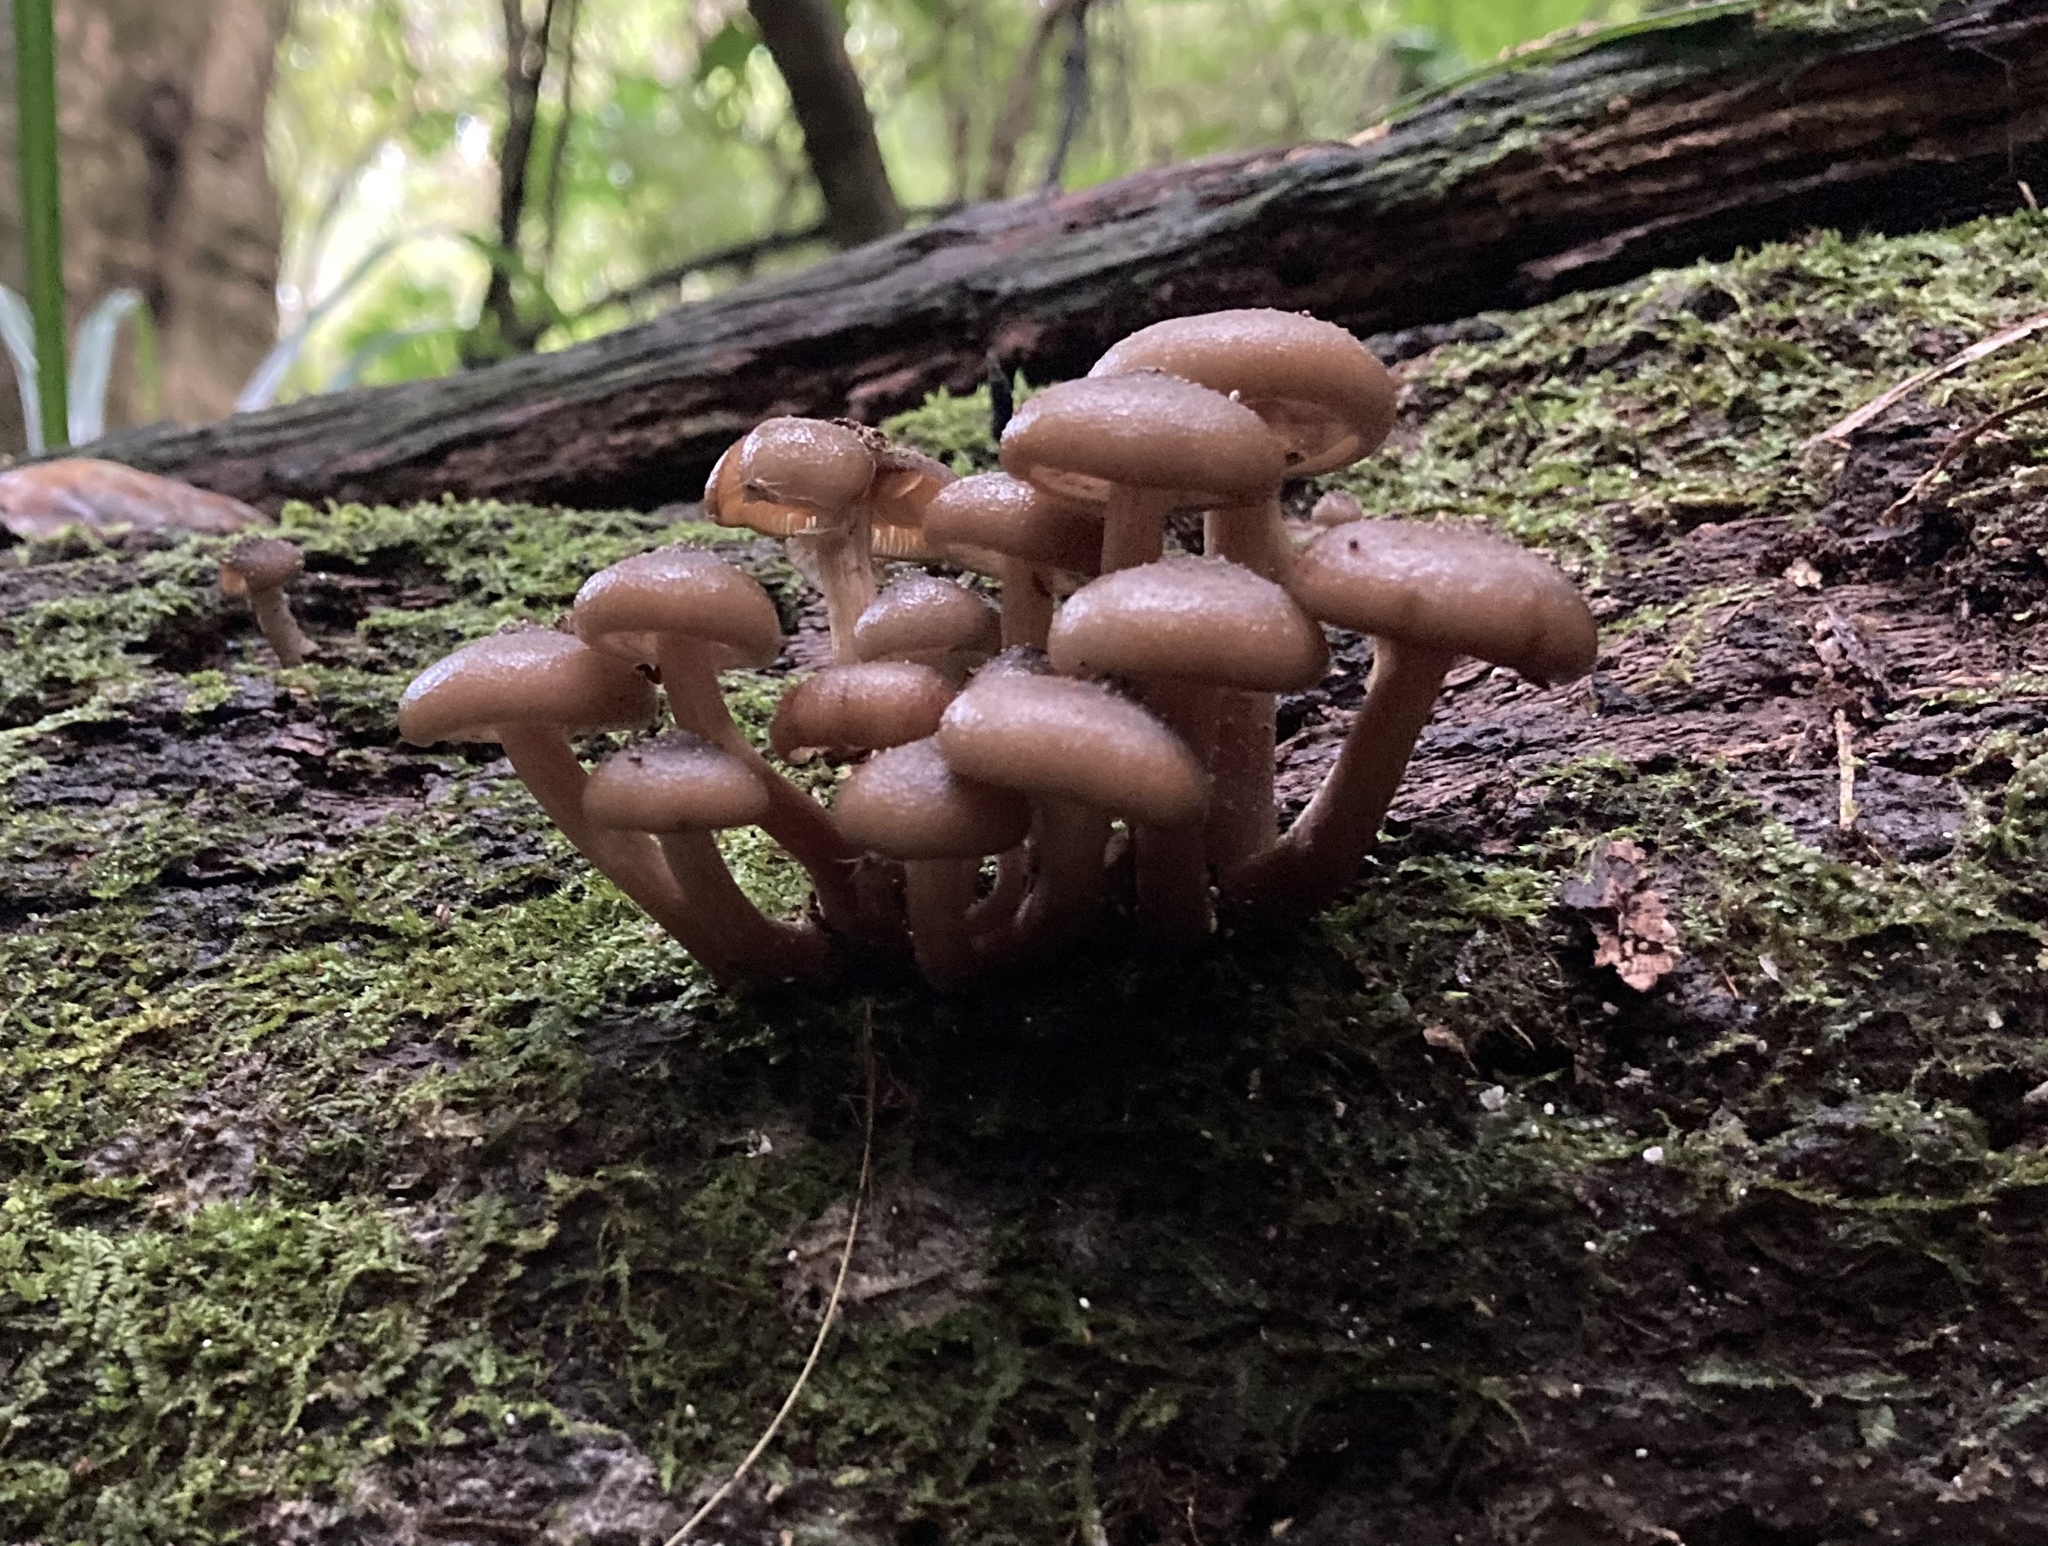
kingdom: Fungi
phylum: Basidiomycota
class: Agaricomycetes
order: Agaricales
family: Physalacriaceae
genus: Armillaria
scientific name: Armillaria novae-zelandiae
